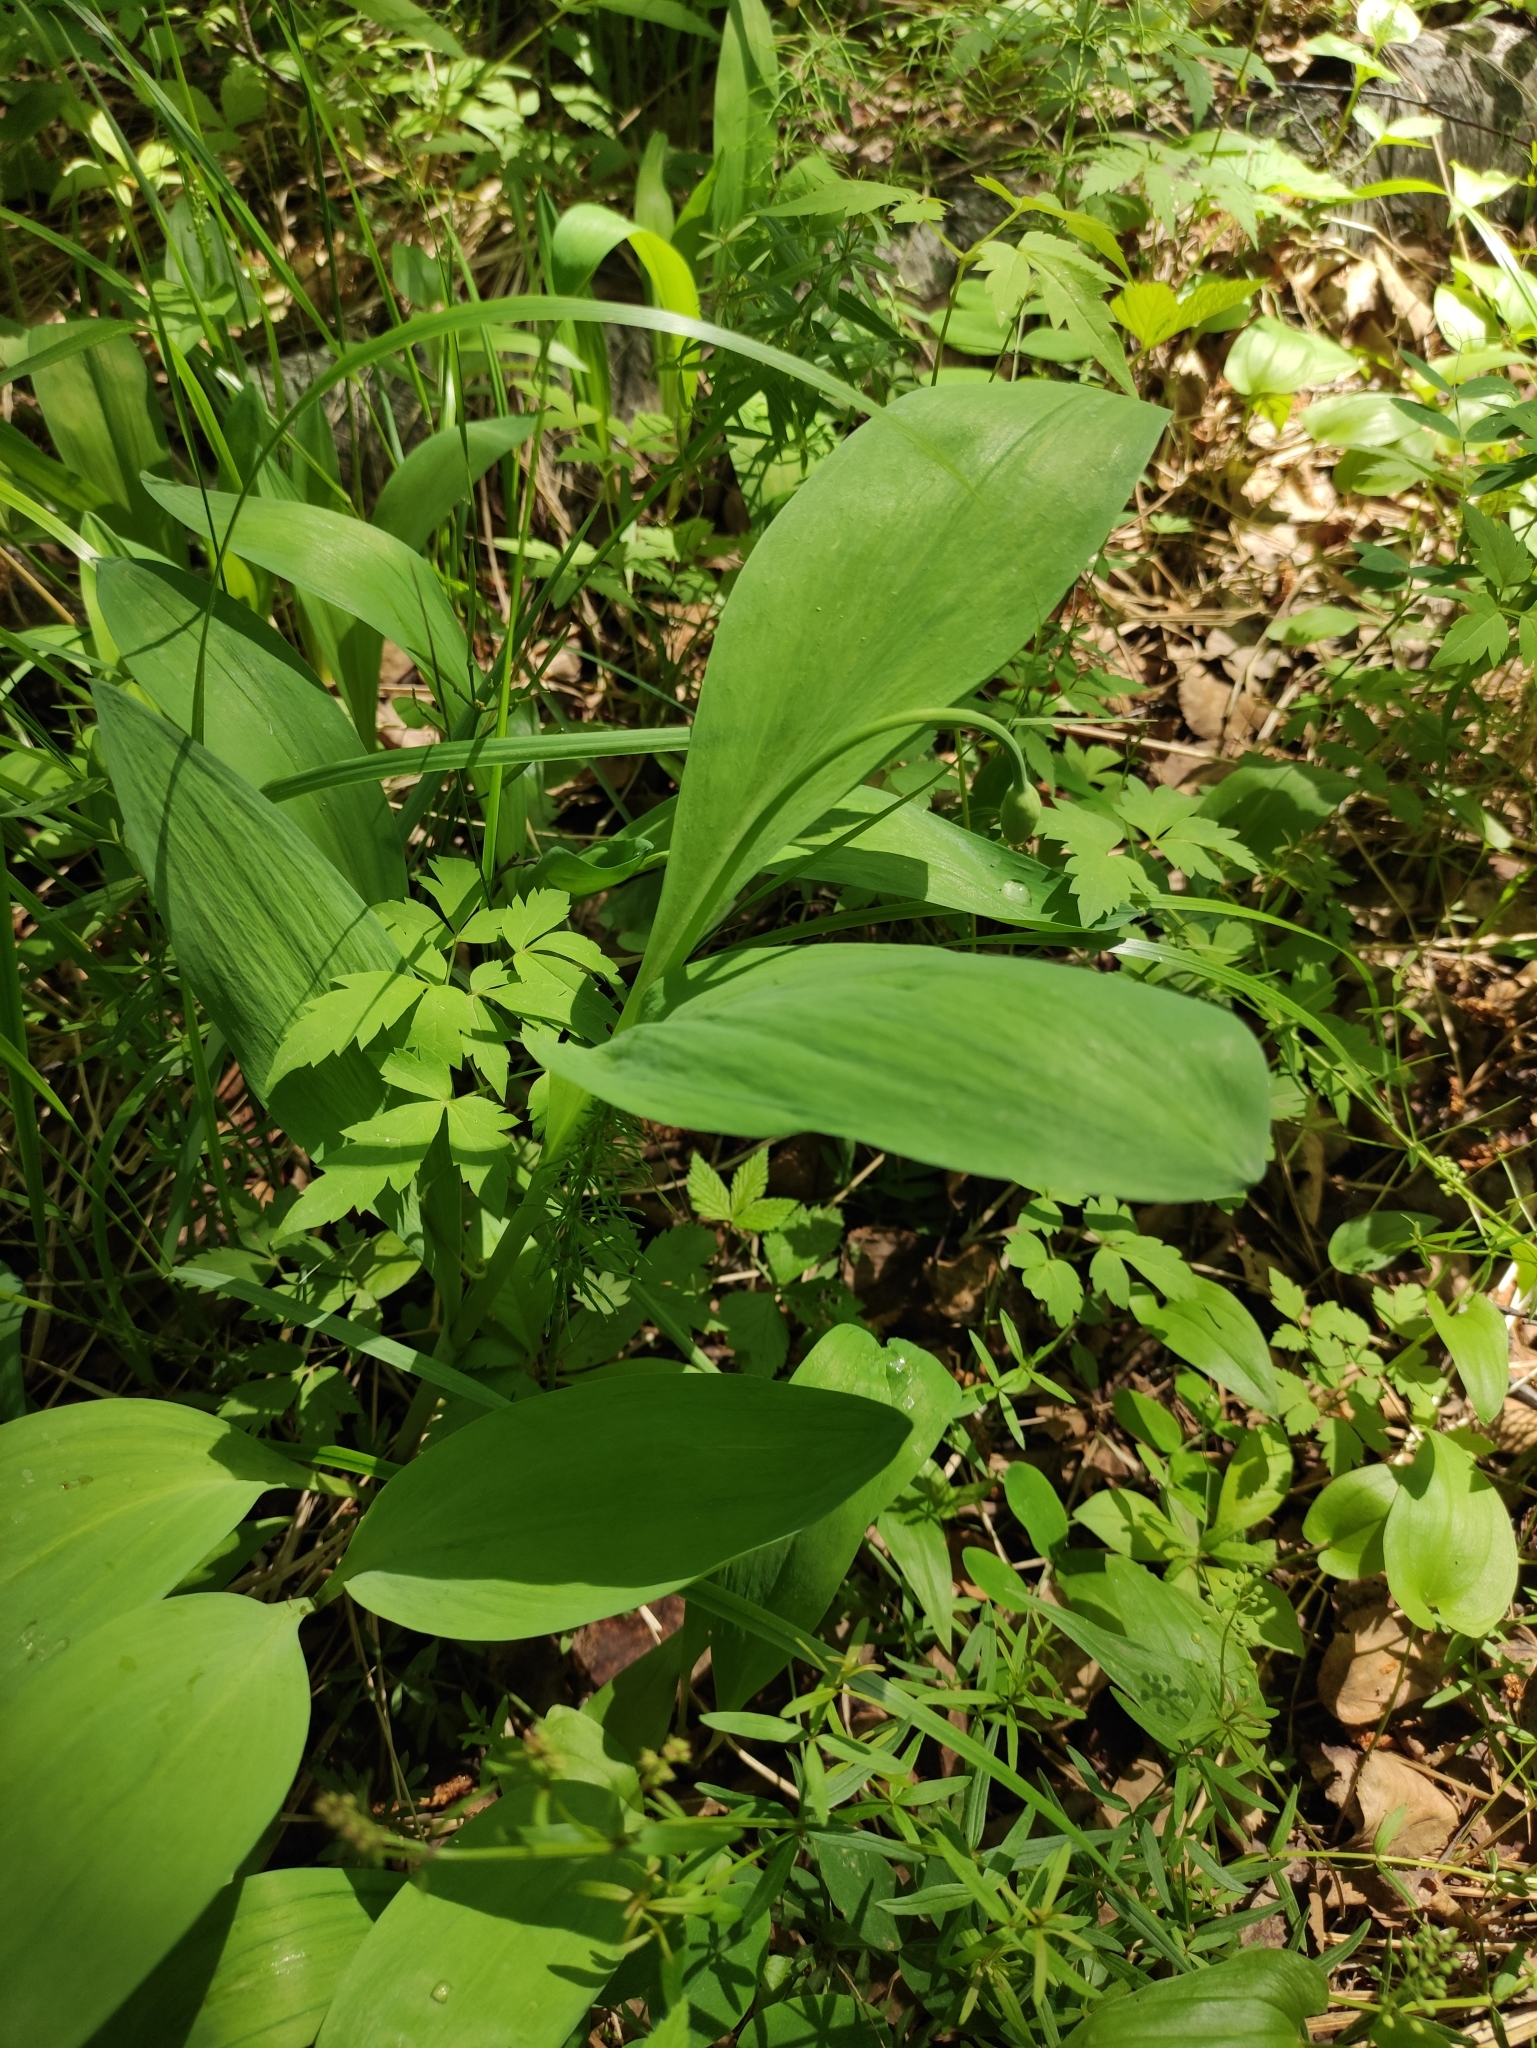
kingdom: Plantae
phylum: Tracheophyta
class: Liliopsida
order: Asparagales
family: Amaryllidaceae
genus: Allium
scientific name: Allium microdictyon
